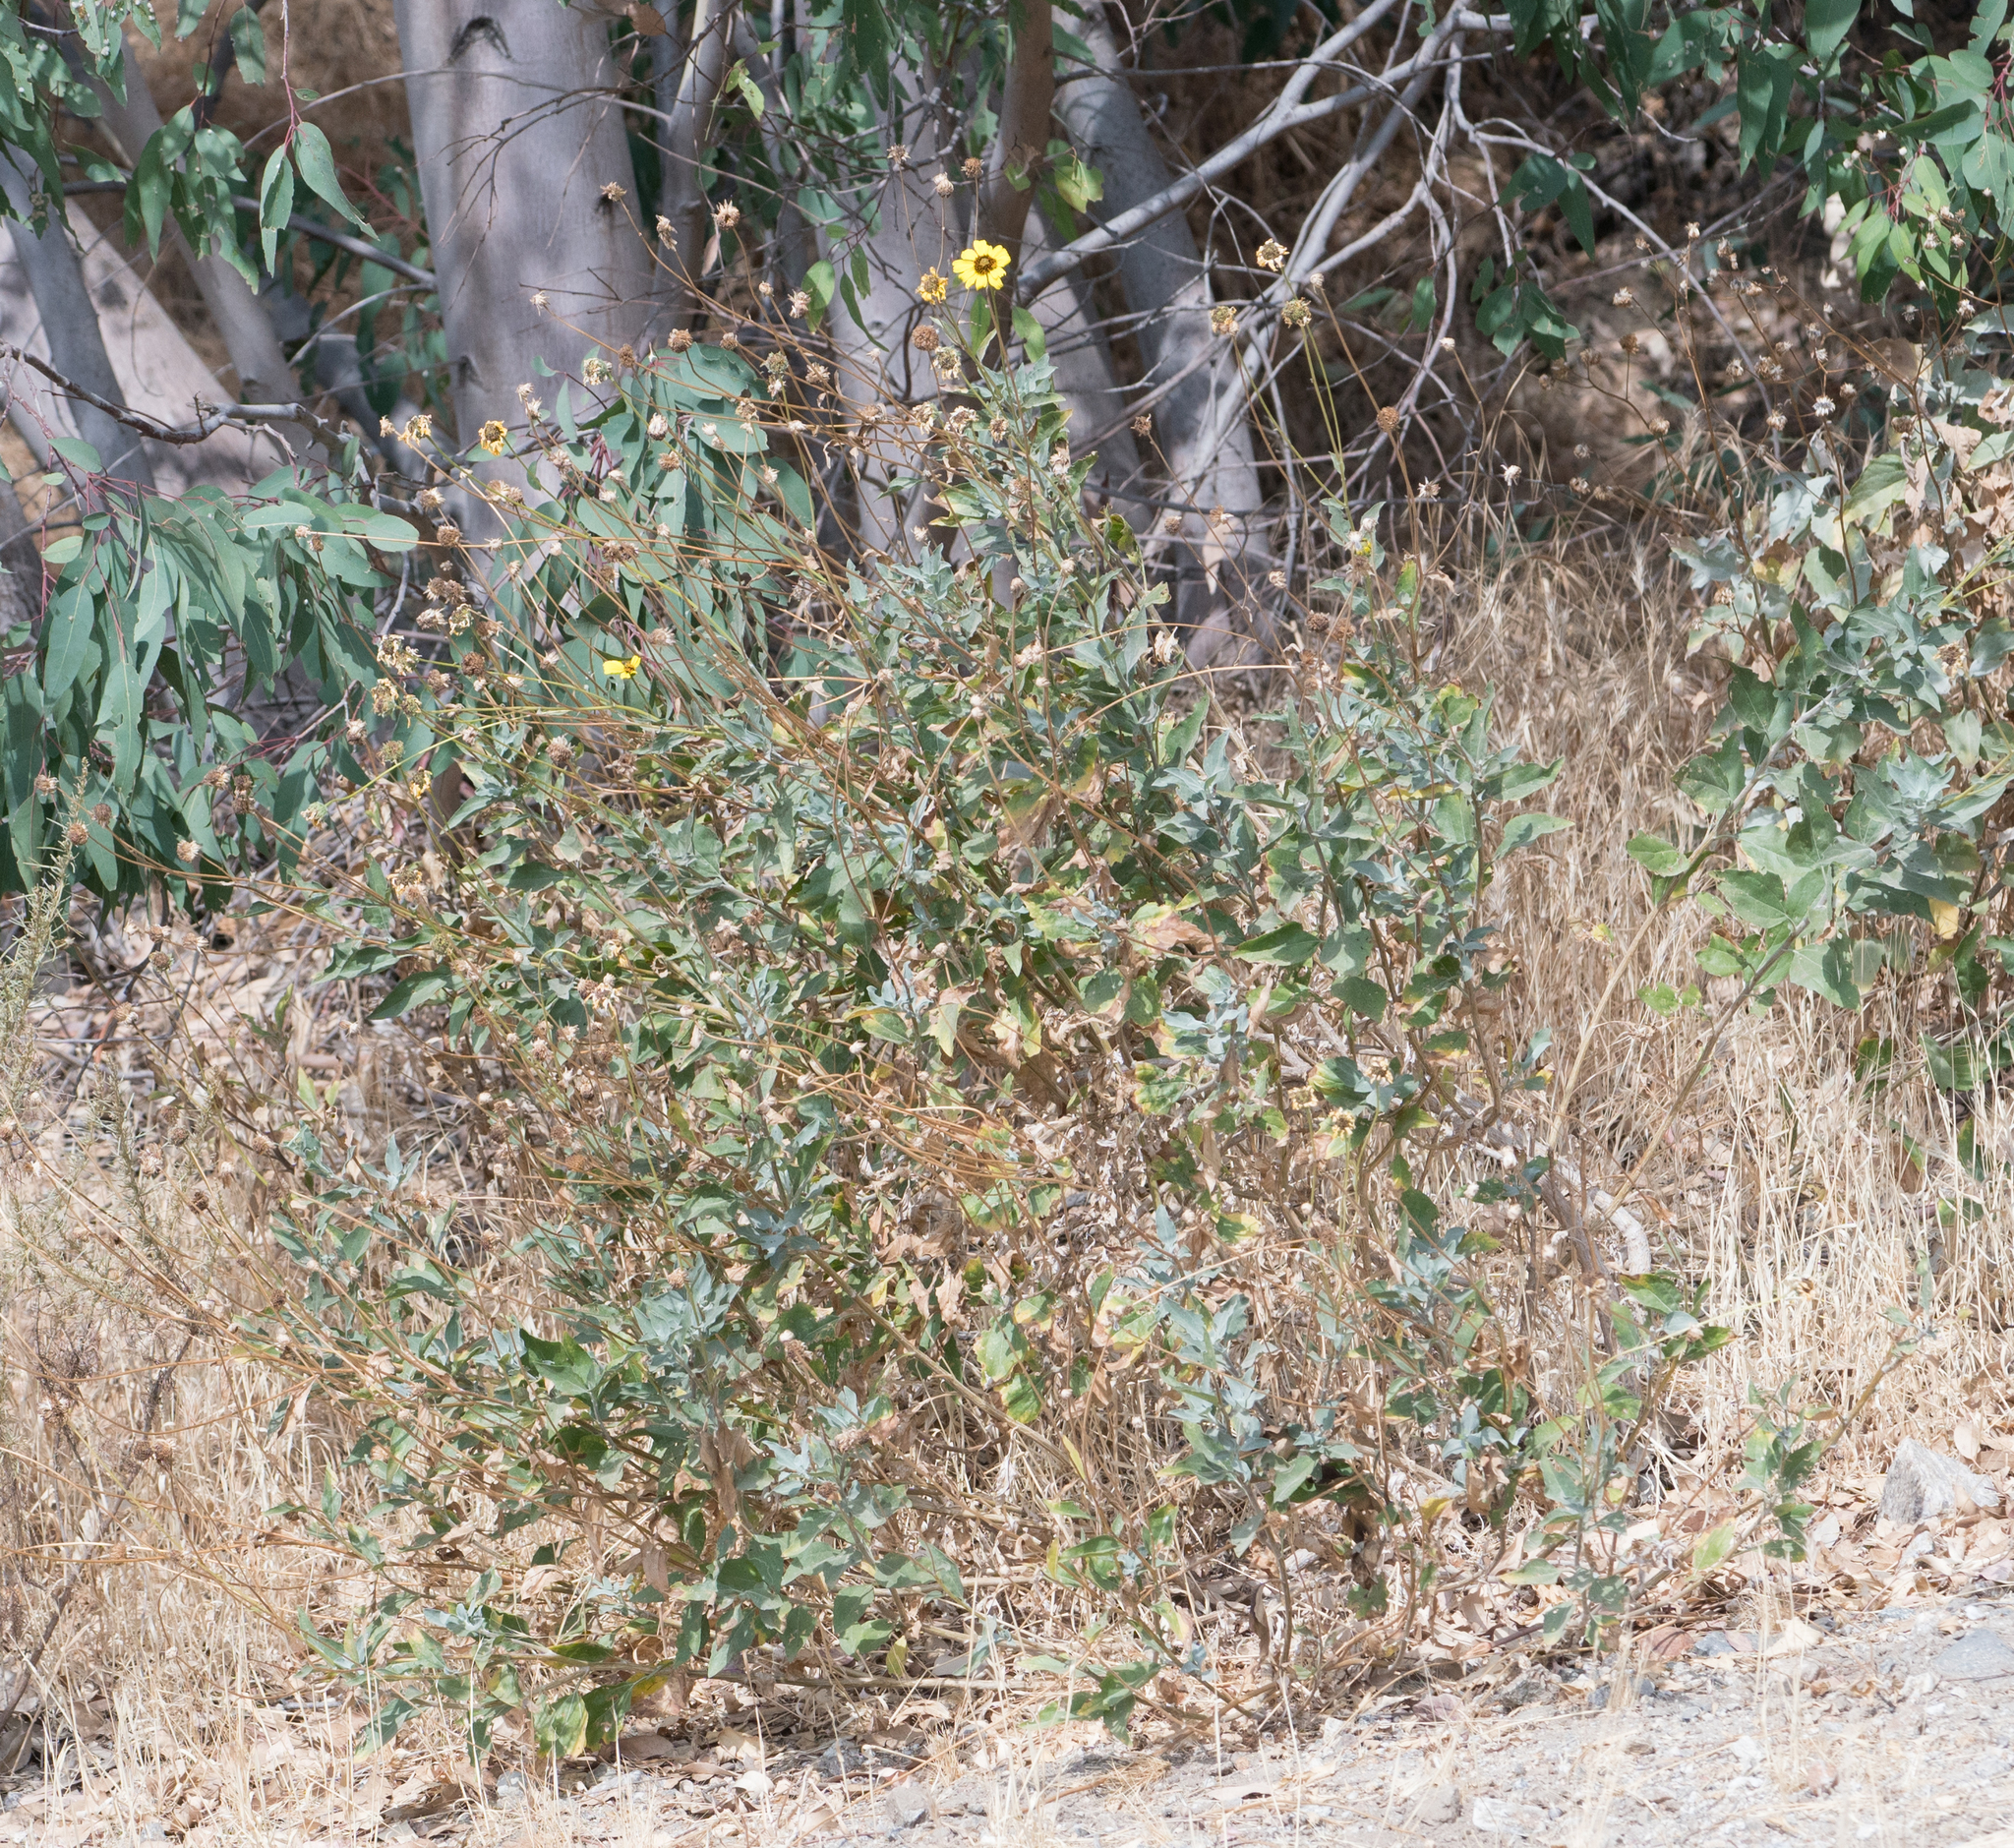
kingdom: Plantae
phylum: Tracheophyta
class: Magnoliopsida
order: Asterales
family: Asteraceae
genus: Encelia
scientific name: Encelia californica
